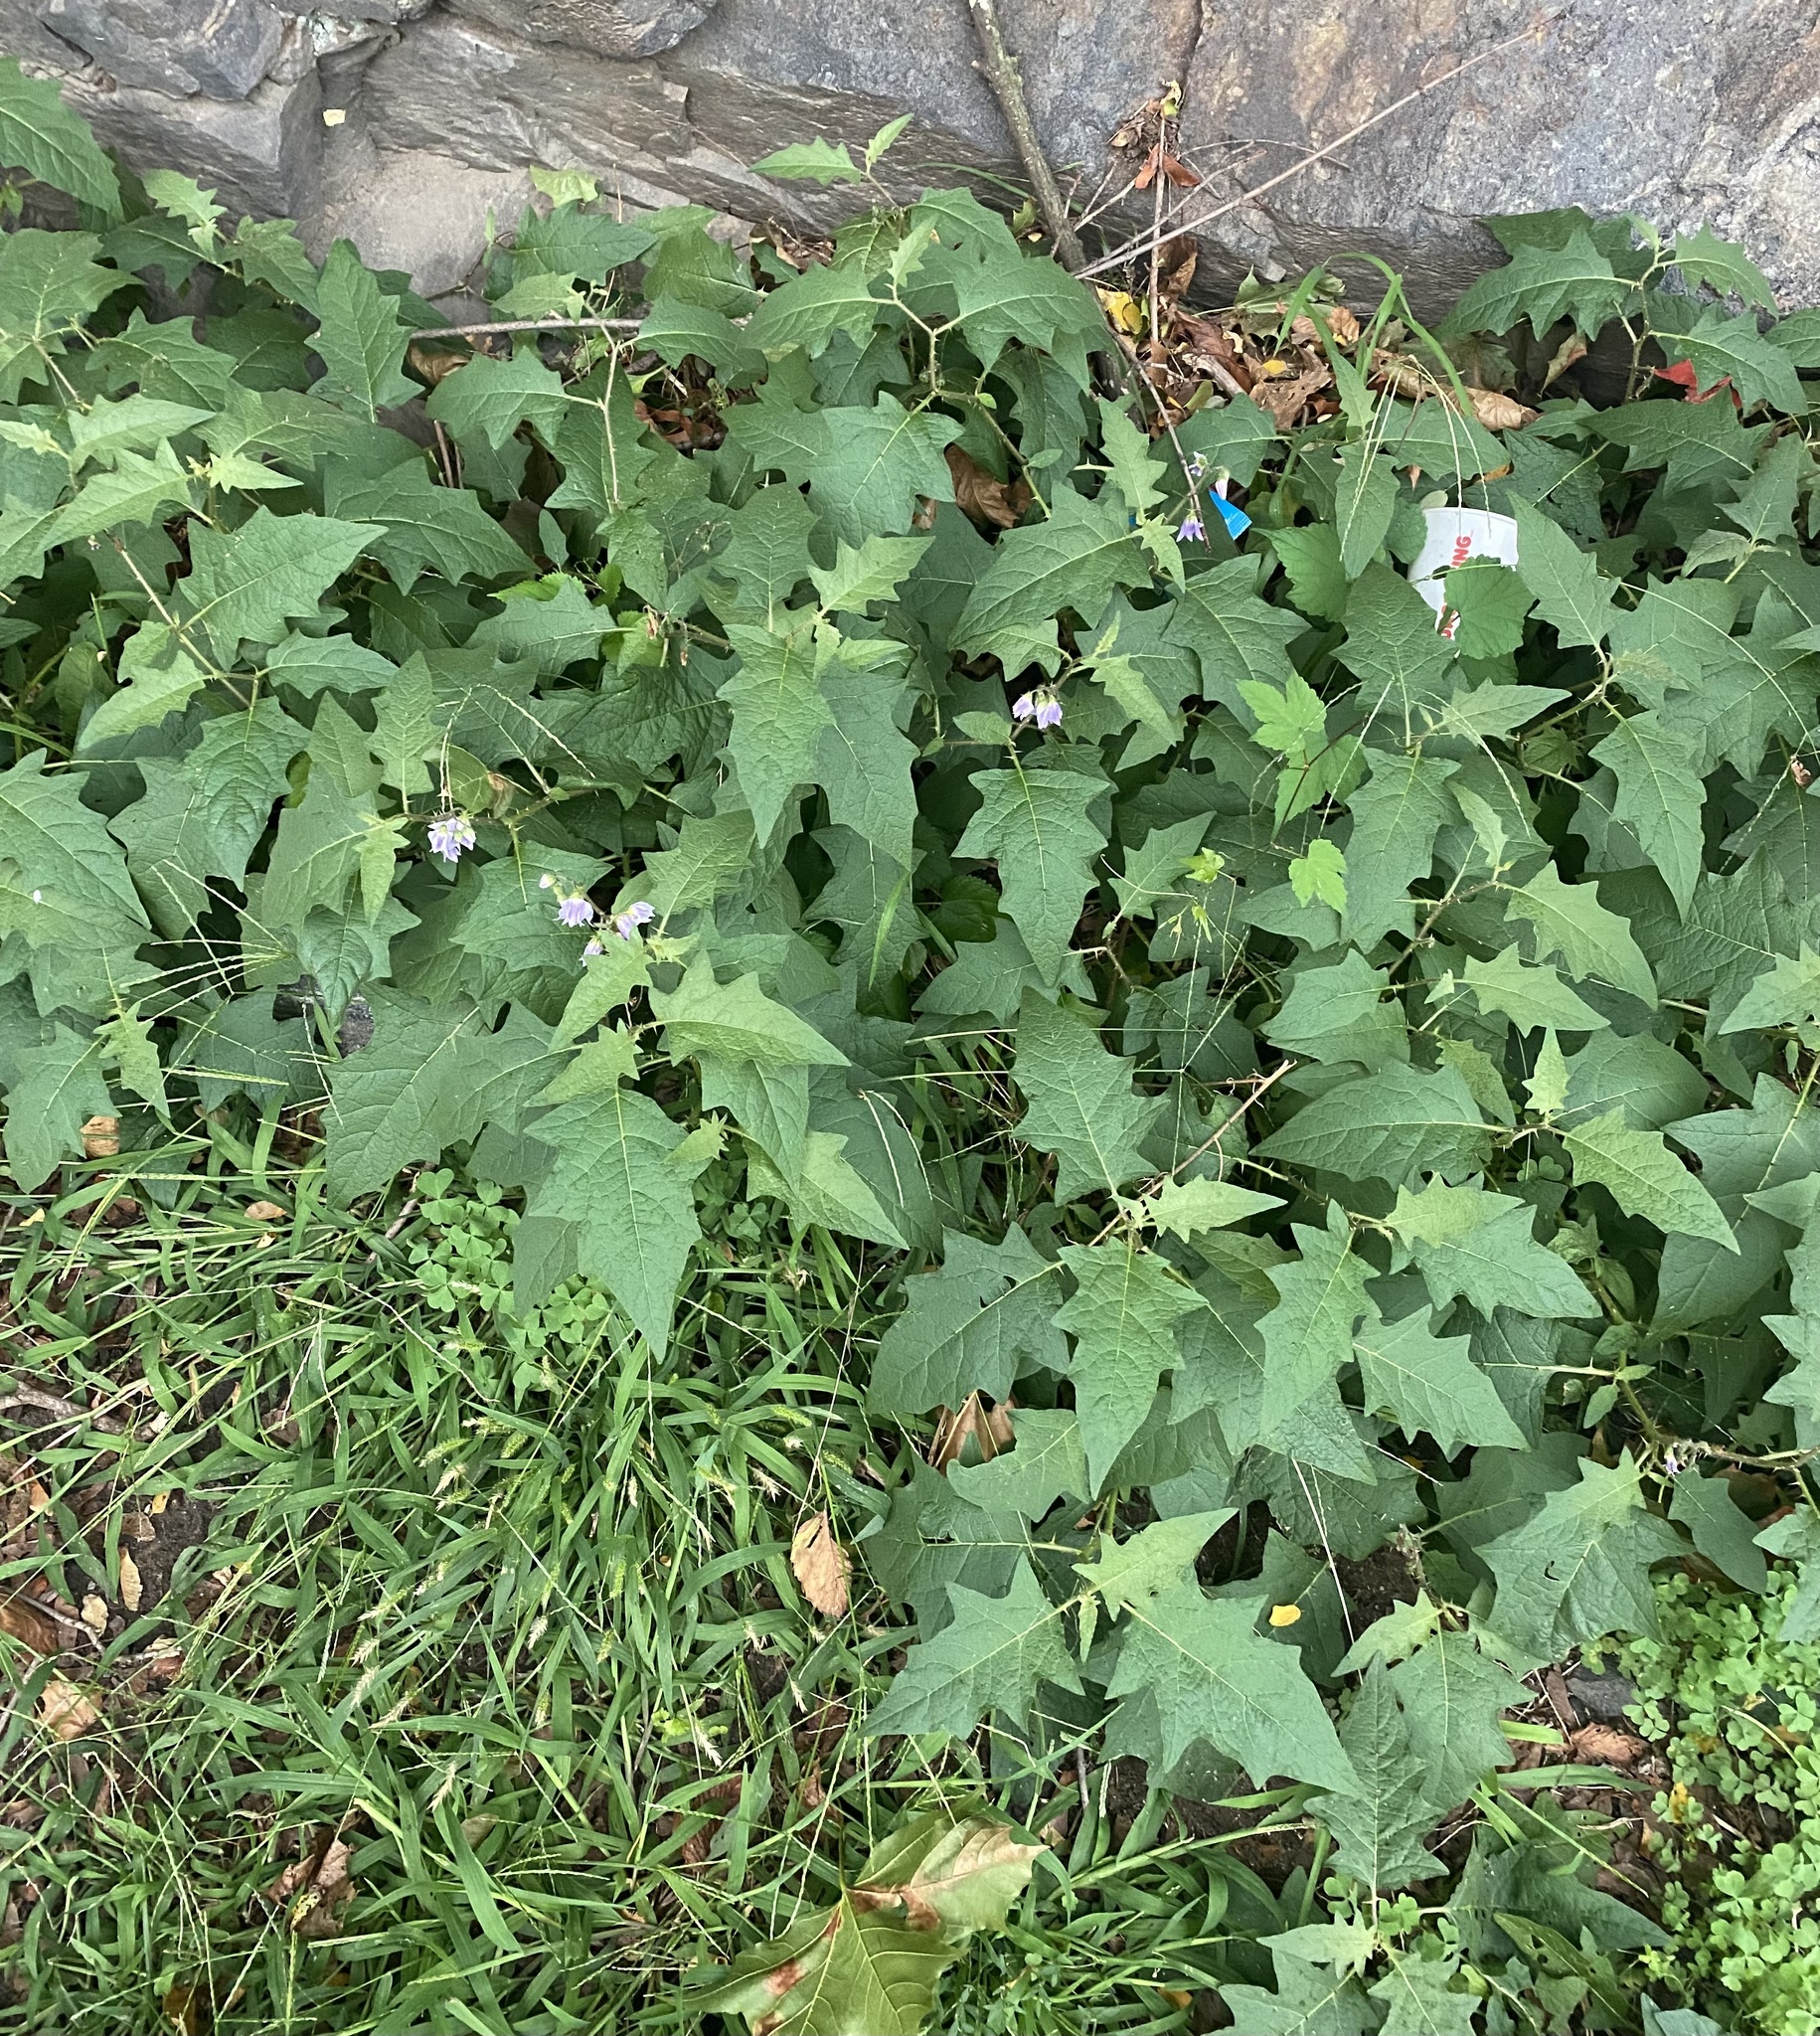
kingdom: Plantae
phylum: Tracheophyta
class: Magnoliopsida
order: Solanales
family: Solanaceae
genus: Solanum
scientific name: Solanum carolinense
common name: Horse-nettle
